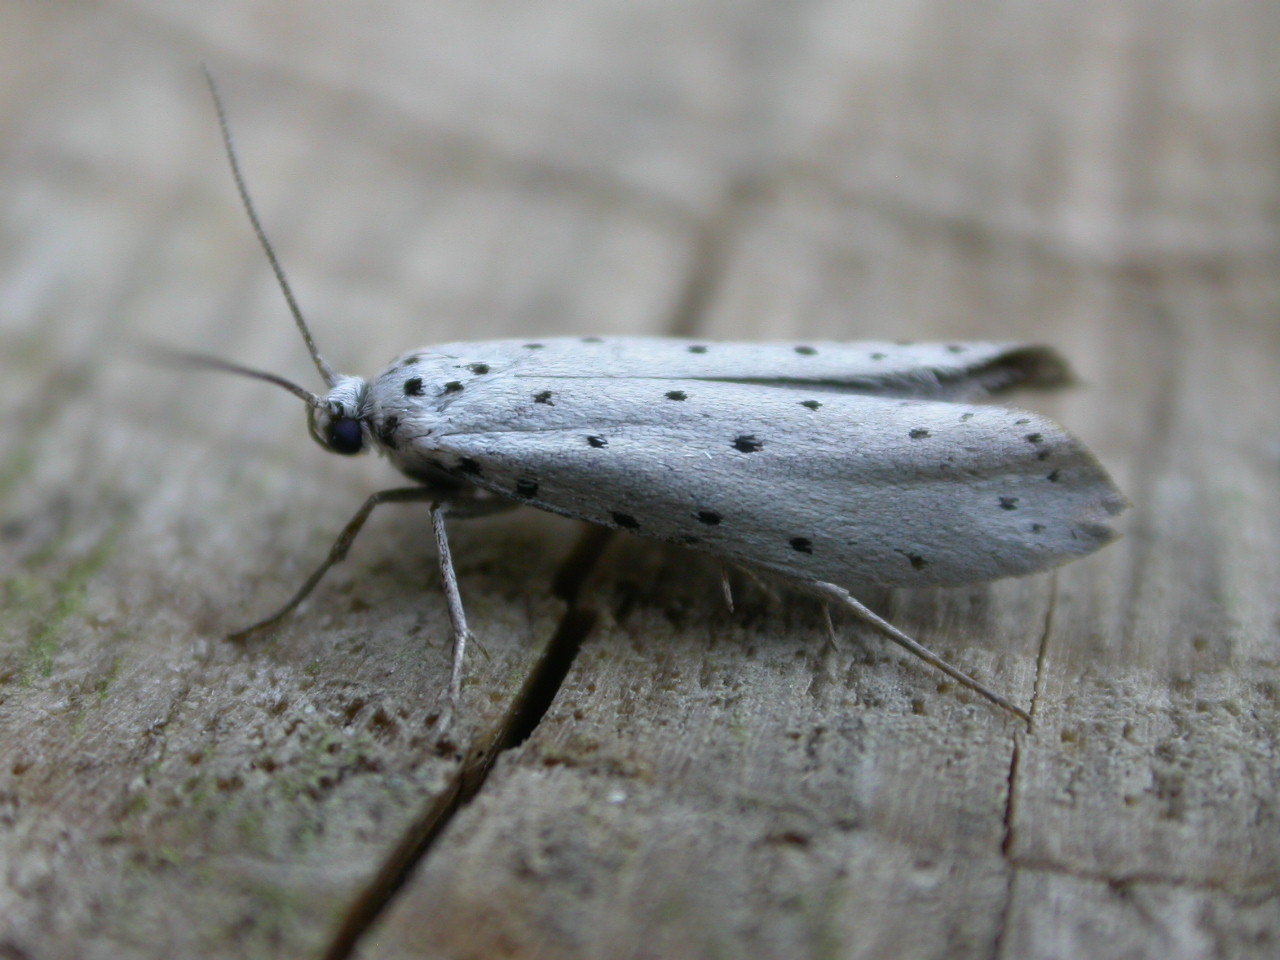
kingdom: Animalia
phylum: Arthropoda
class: Insecta
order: Lepidoptera
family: Yponomeutidae
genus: Yponomeuta
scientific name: Yponomeuta padella
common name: Orchard ermine
